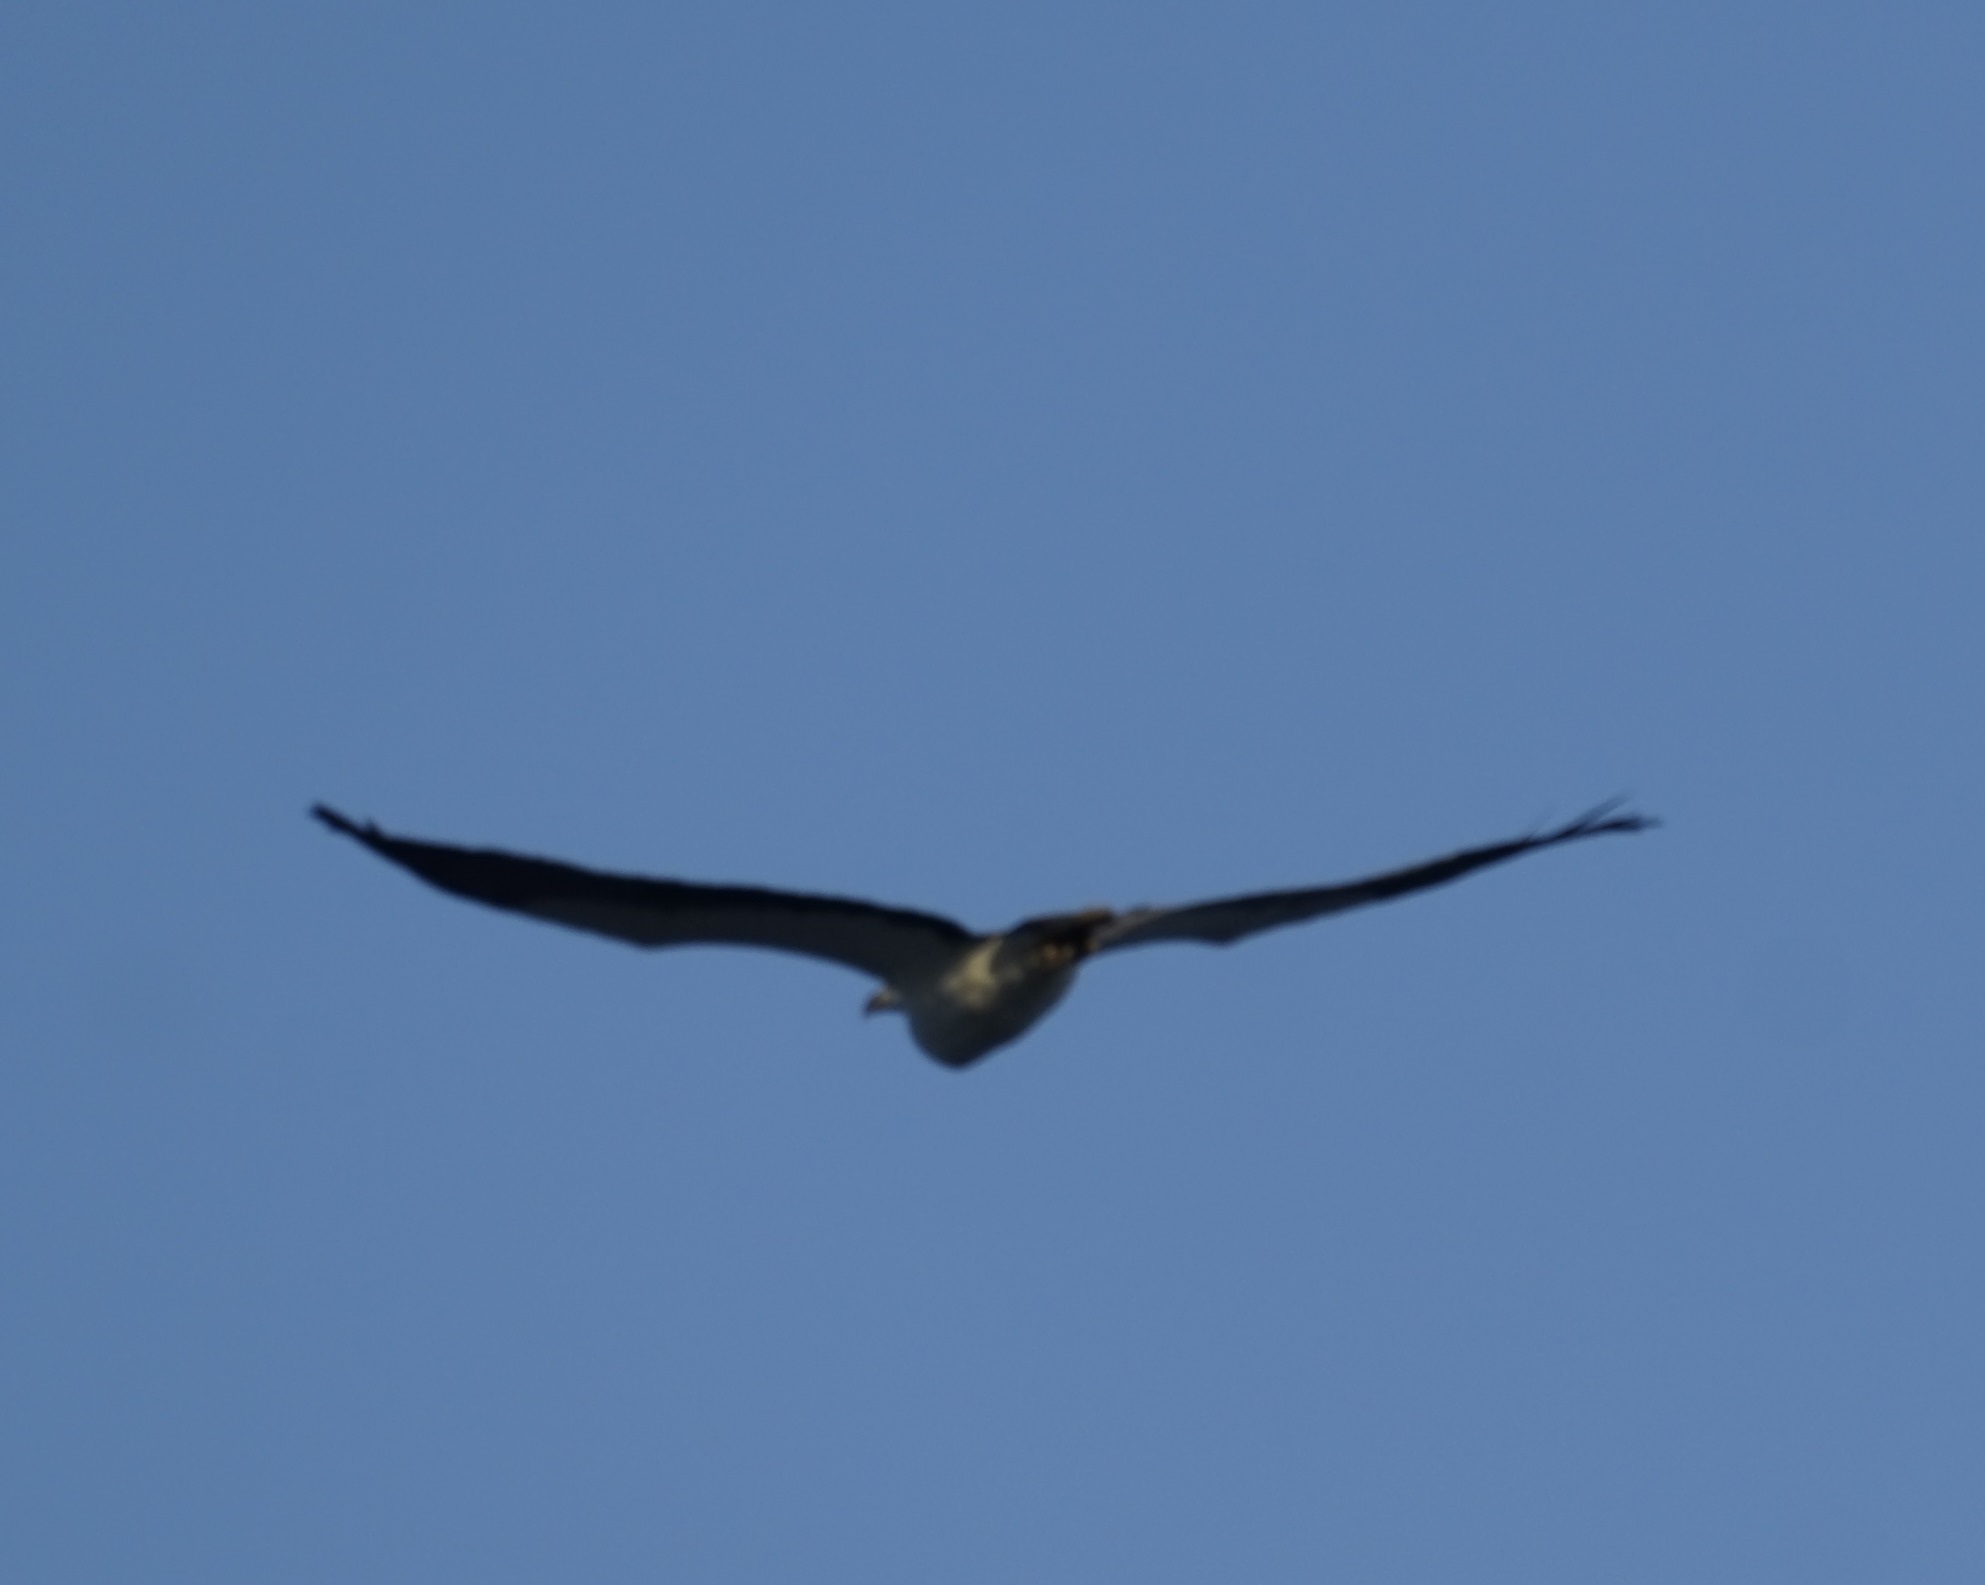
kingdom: Animalia
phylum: Chordata
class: Aves
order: Accipitriformes
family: Accipitridae
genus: Haliaeetus
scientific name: Haliaeetus leucogaster
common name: White-bellied sea eagle
